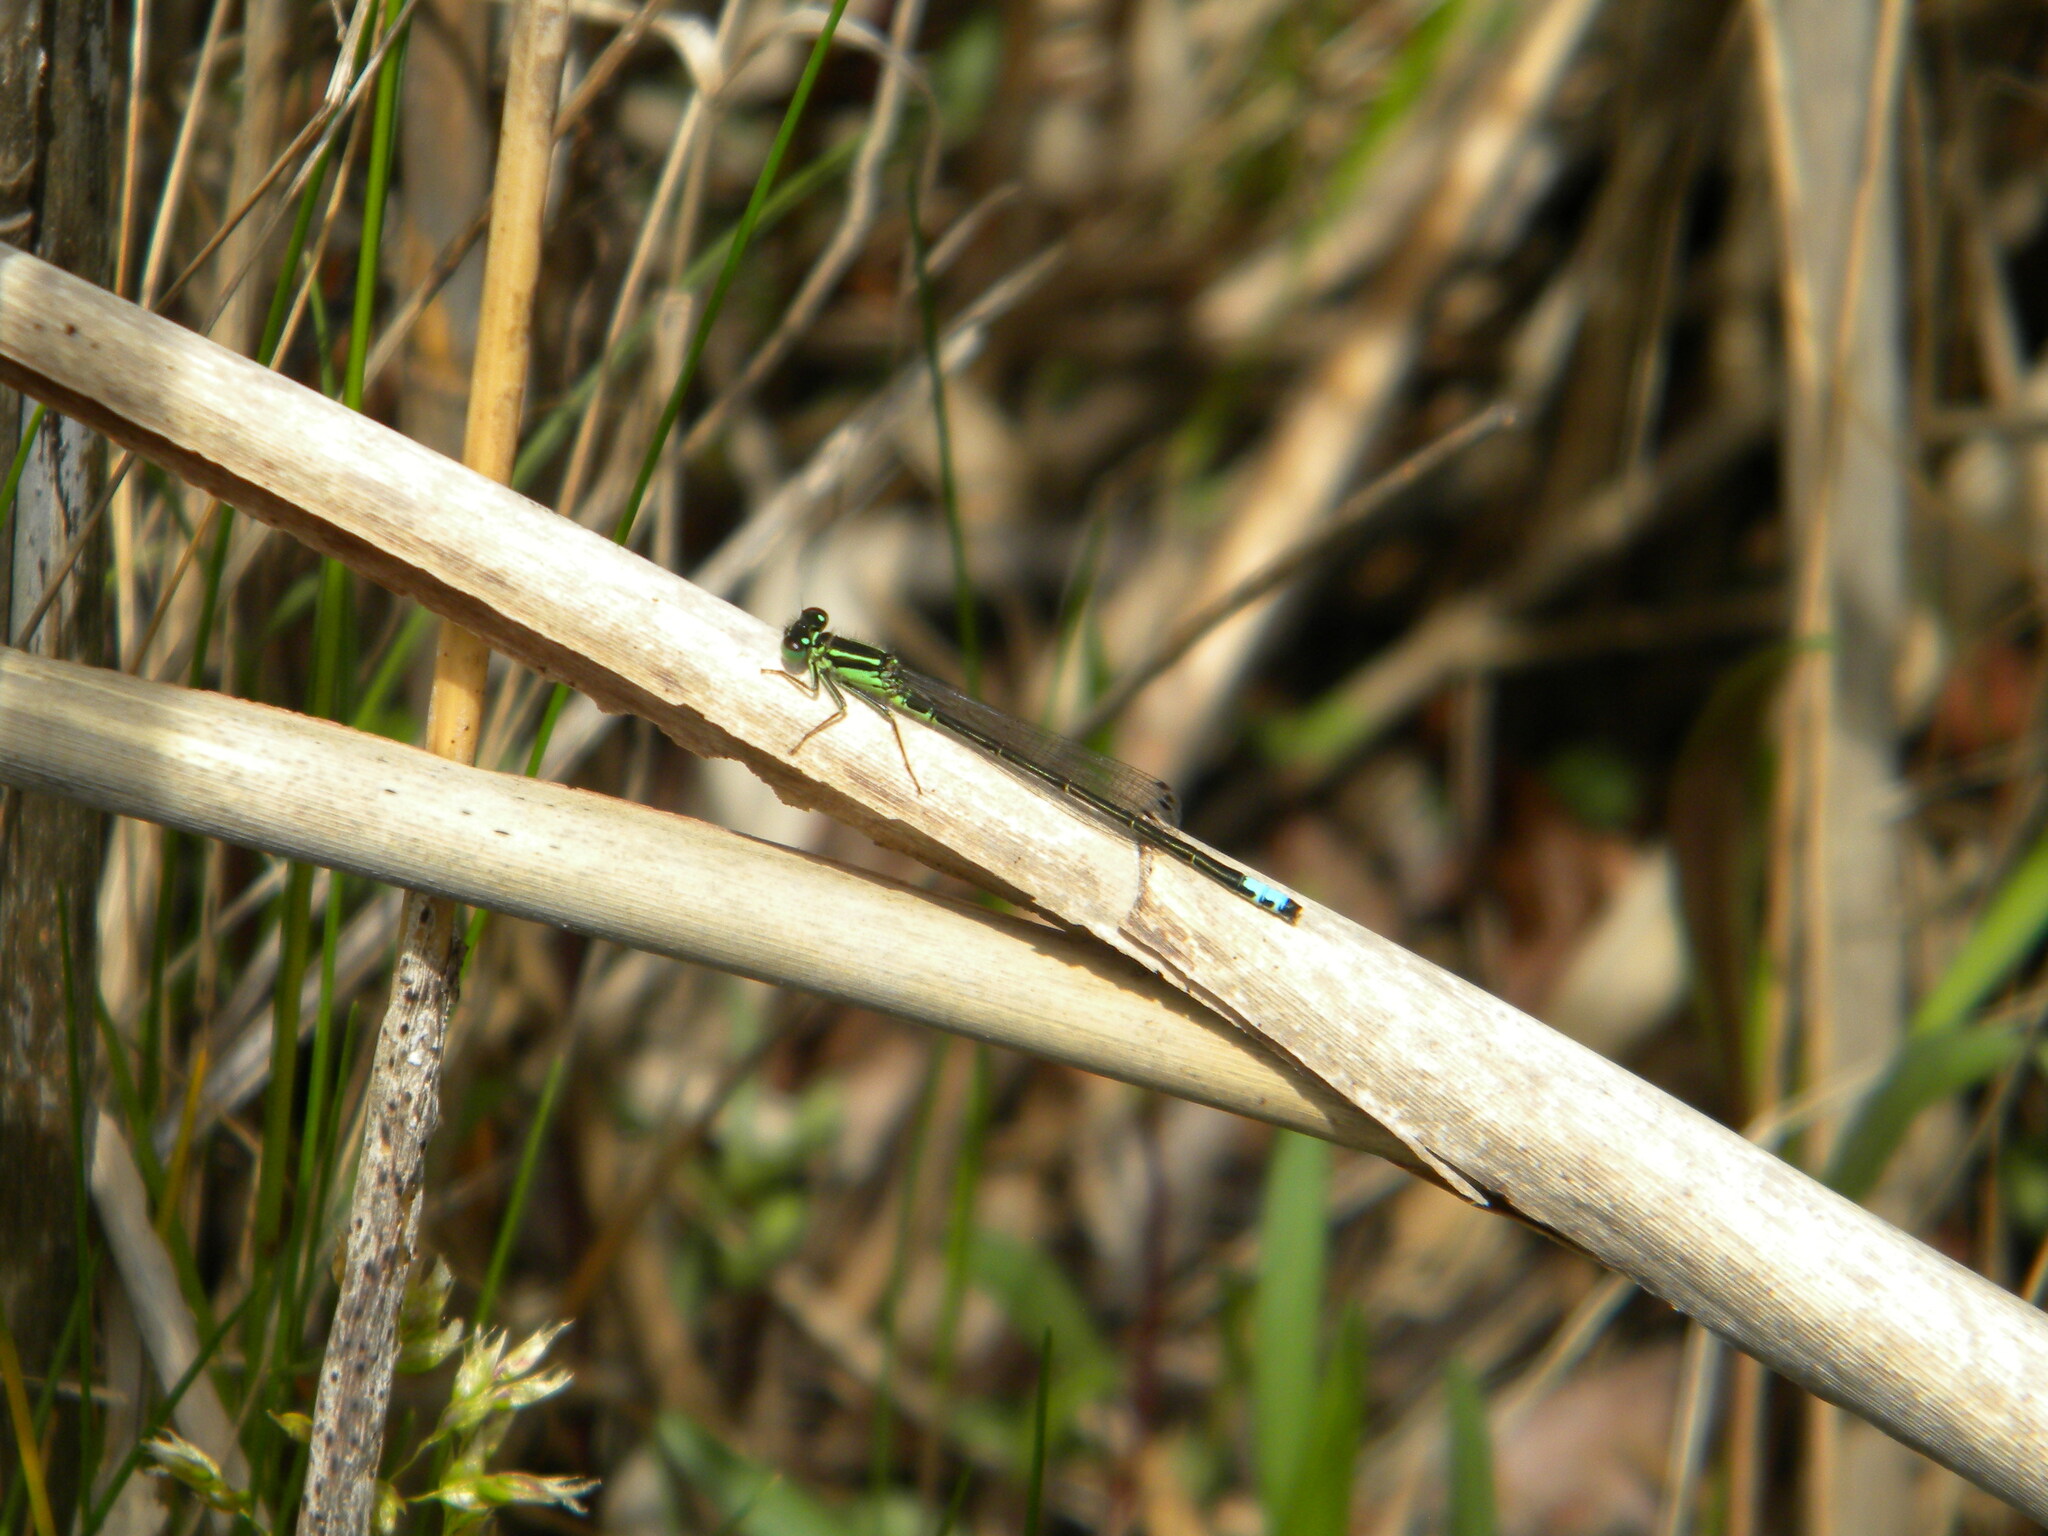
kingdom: Animalia
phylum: Arthropoda
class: Insecta
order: Odonata
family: Coenagrionidae
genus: Ischnura
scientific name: Ischnura verticalis
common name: Eastern forktail
